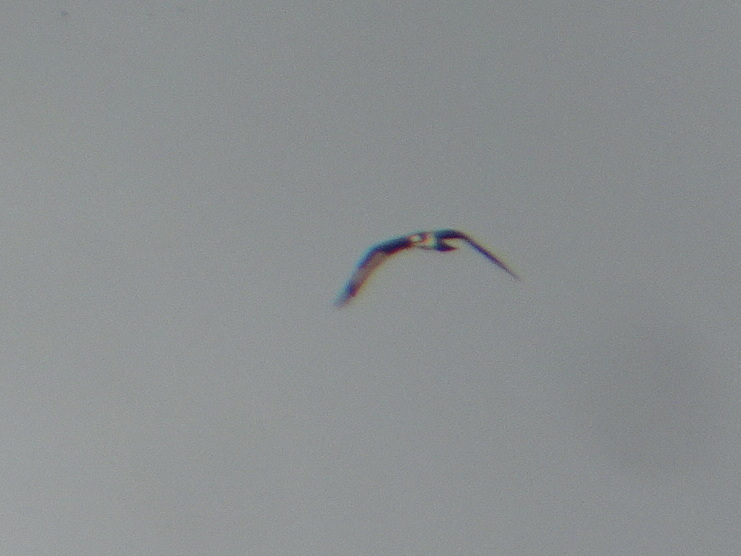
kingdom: Animalia
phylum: Chordata
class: Aves
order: Accipitriformes
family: Pandionidae
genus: Pandion
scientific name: Pandion haliaetus
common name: Osprey
